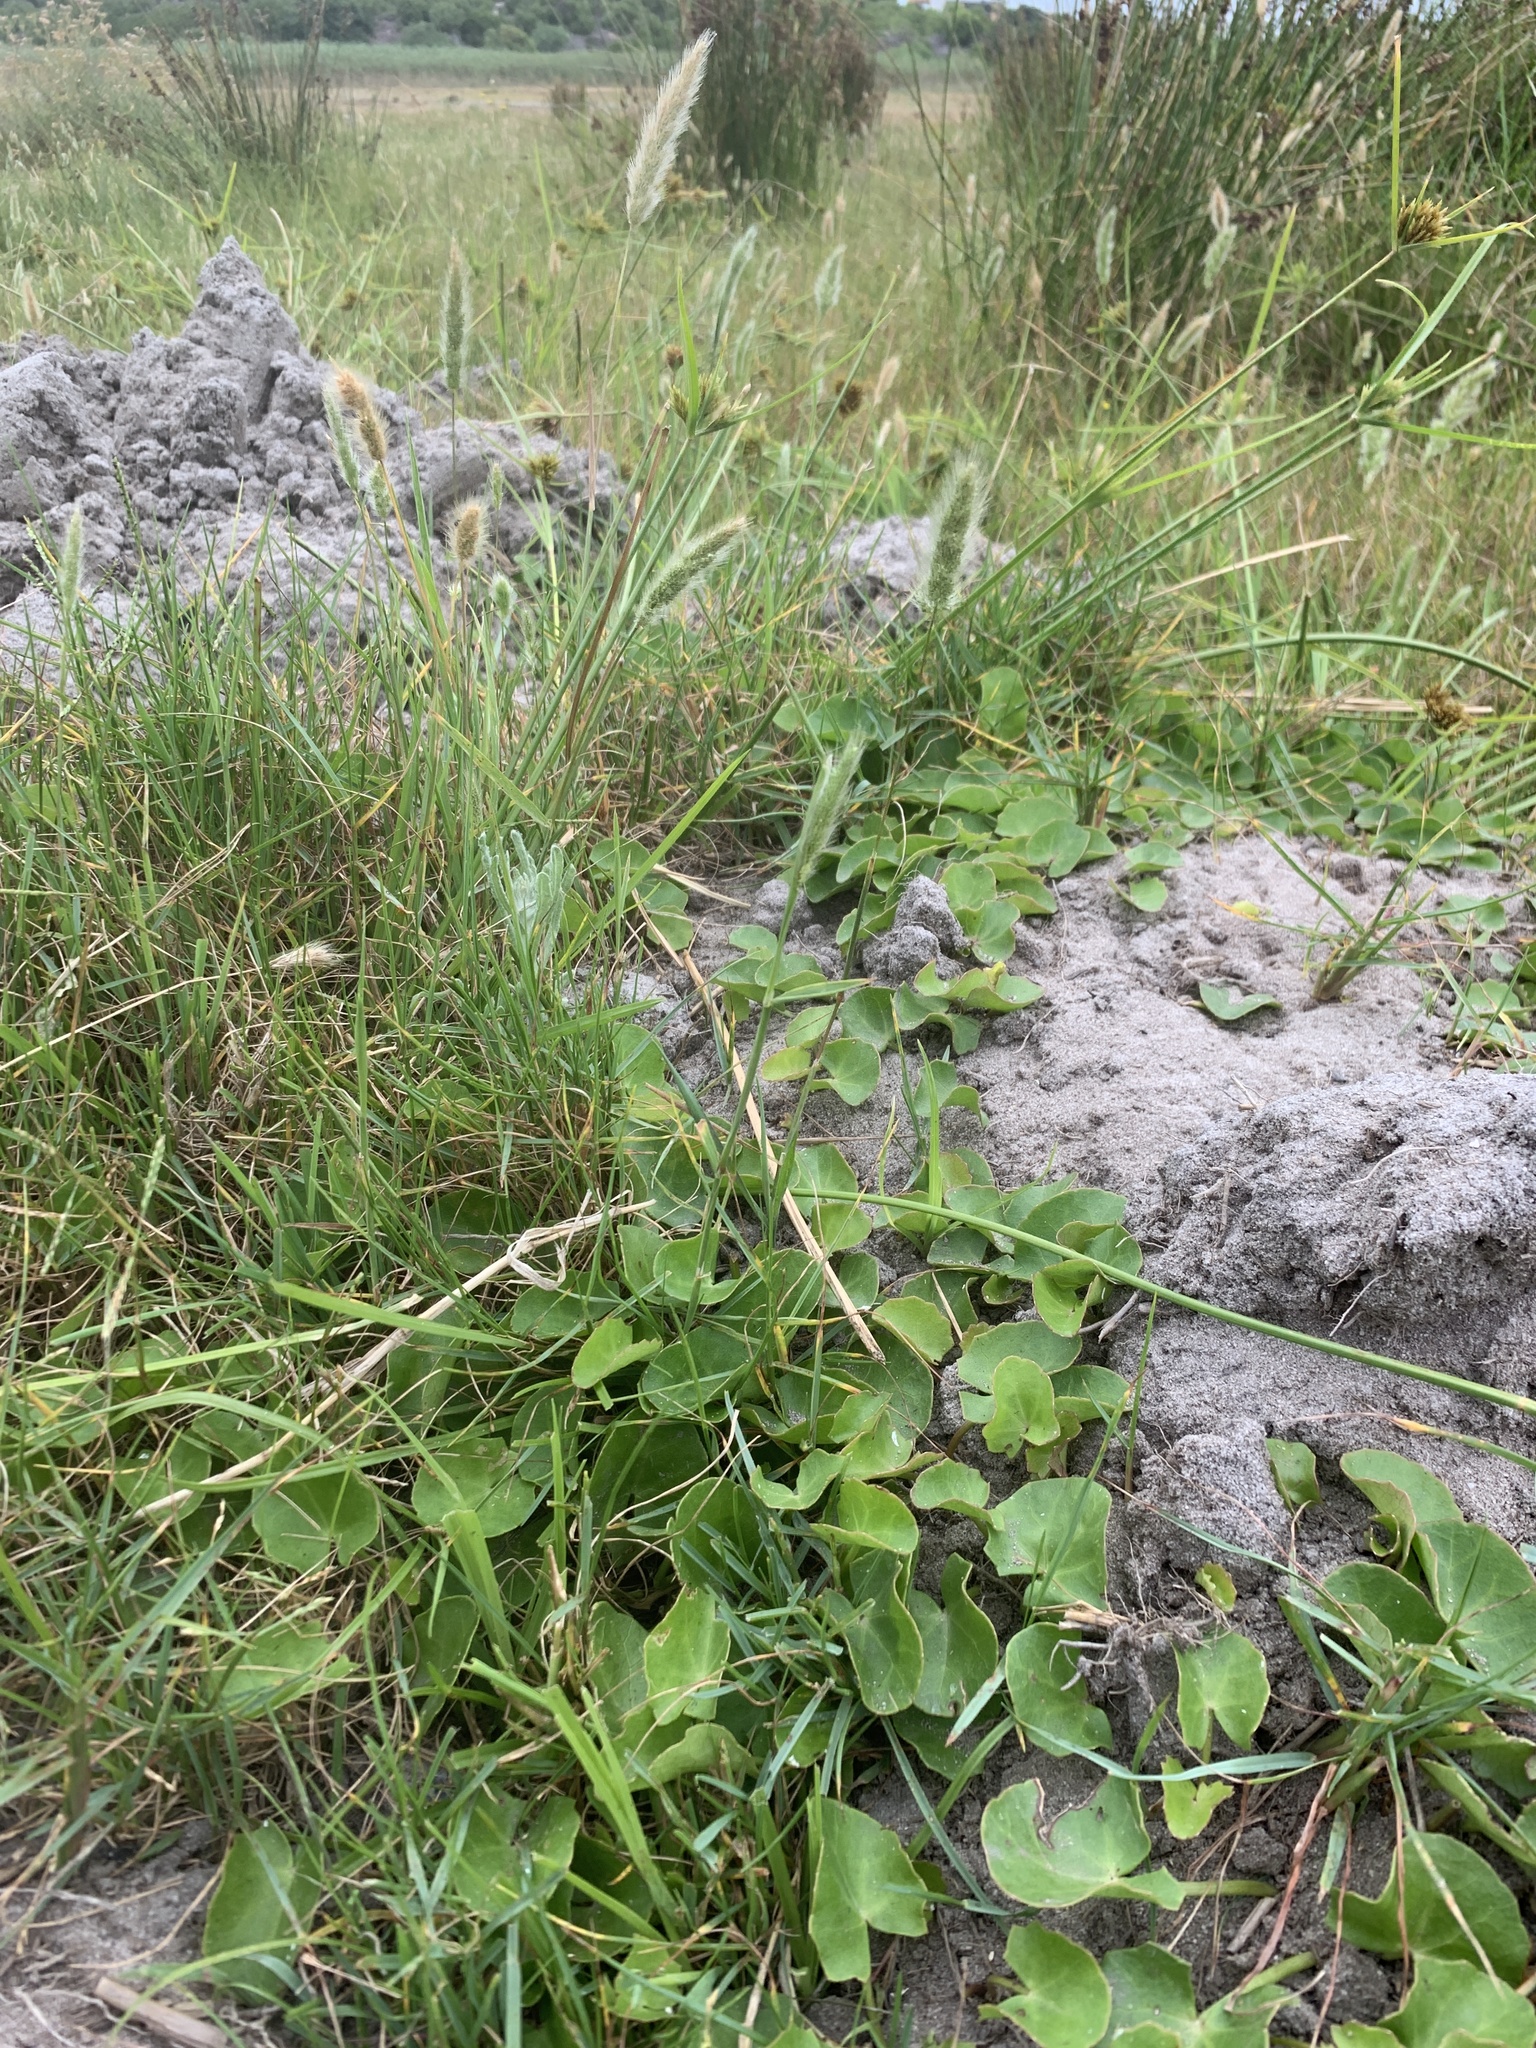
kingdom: Plantae
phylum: Tracheophyta
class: Magnoliopsida
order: Apiales
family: Apiaceae
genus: Centella
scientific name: Centella asiatica
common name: Spadeleaf
